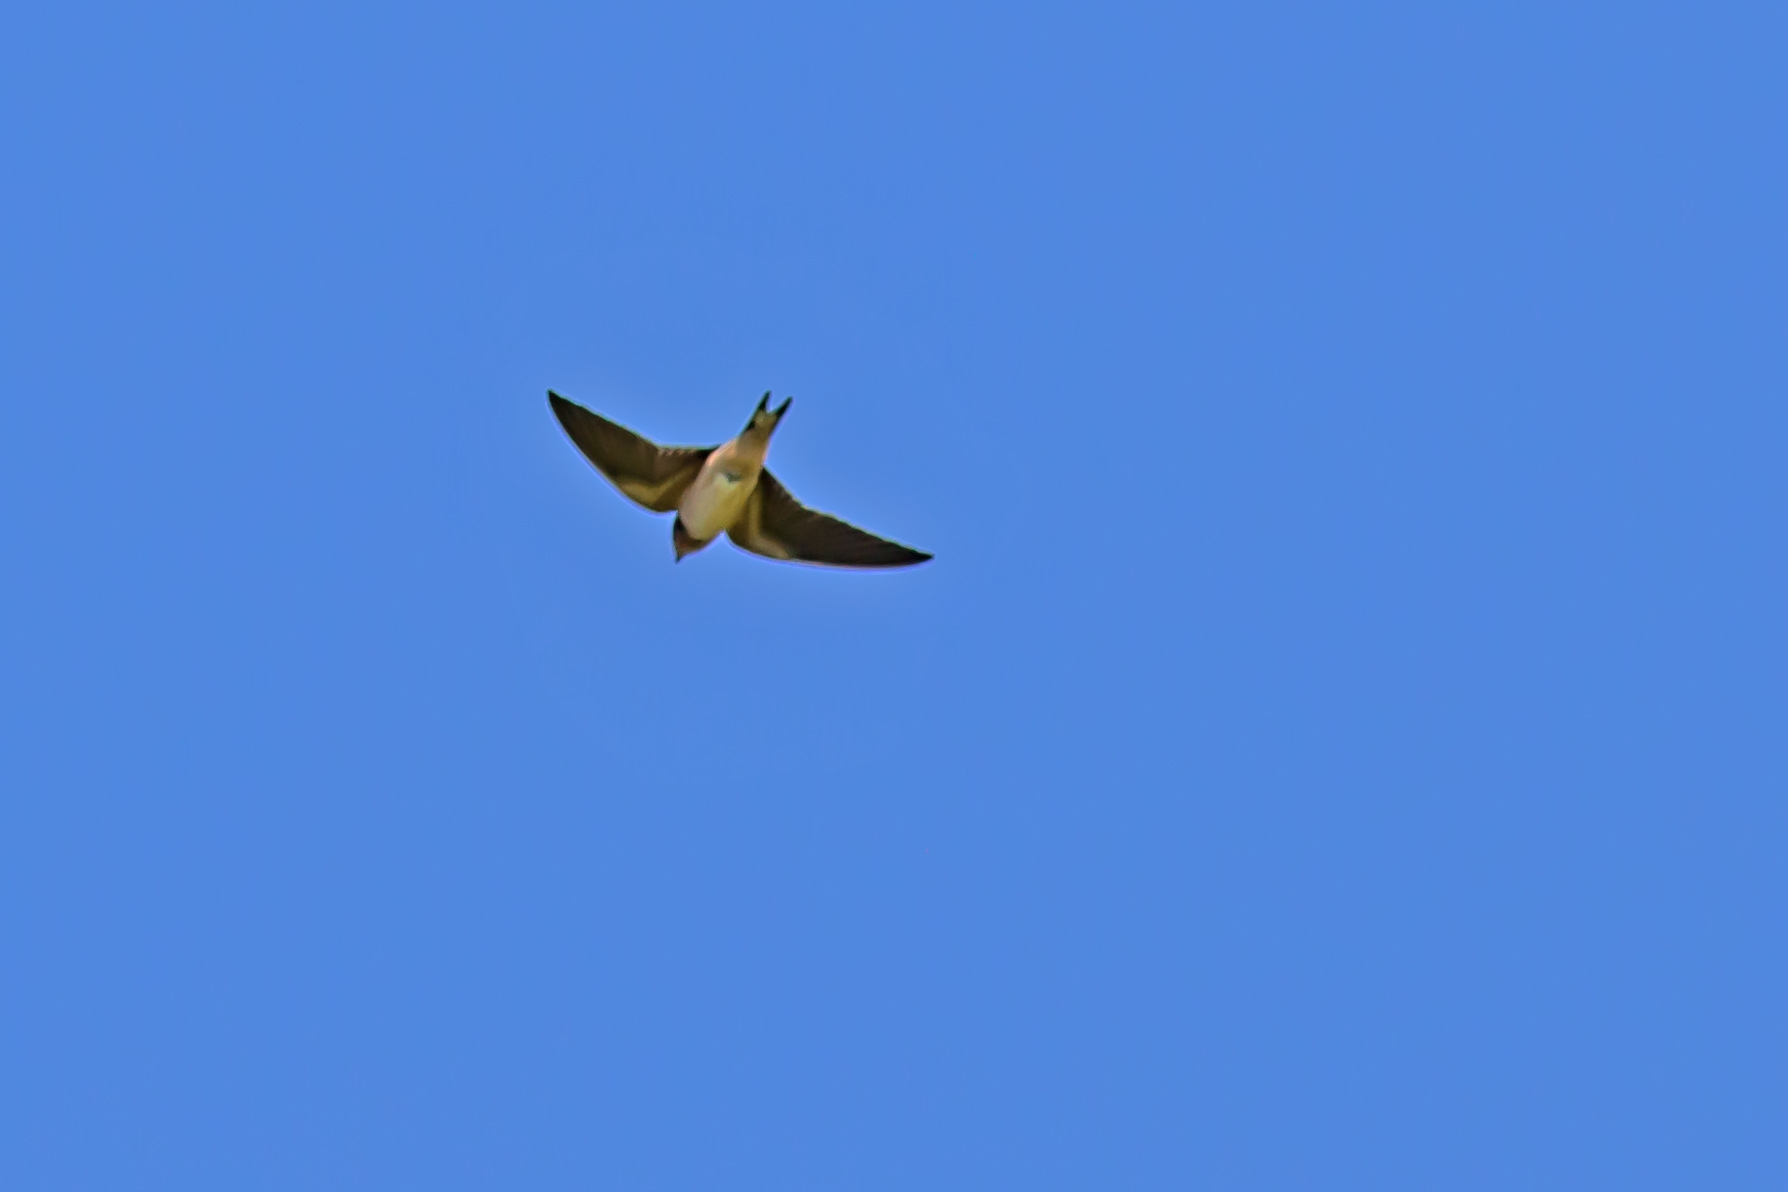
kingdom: Animalia
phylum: Chordata
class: Aves
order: Passeriformes
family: Hirundinidae
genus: Hirundo
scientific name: Hirundo rustica
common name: Barn swallow
